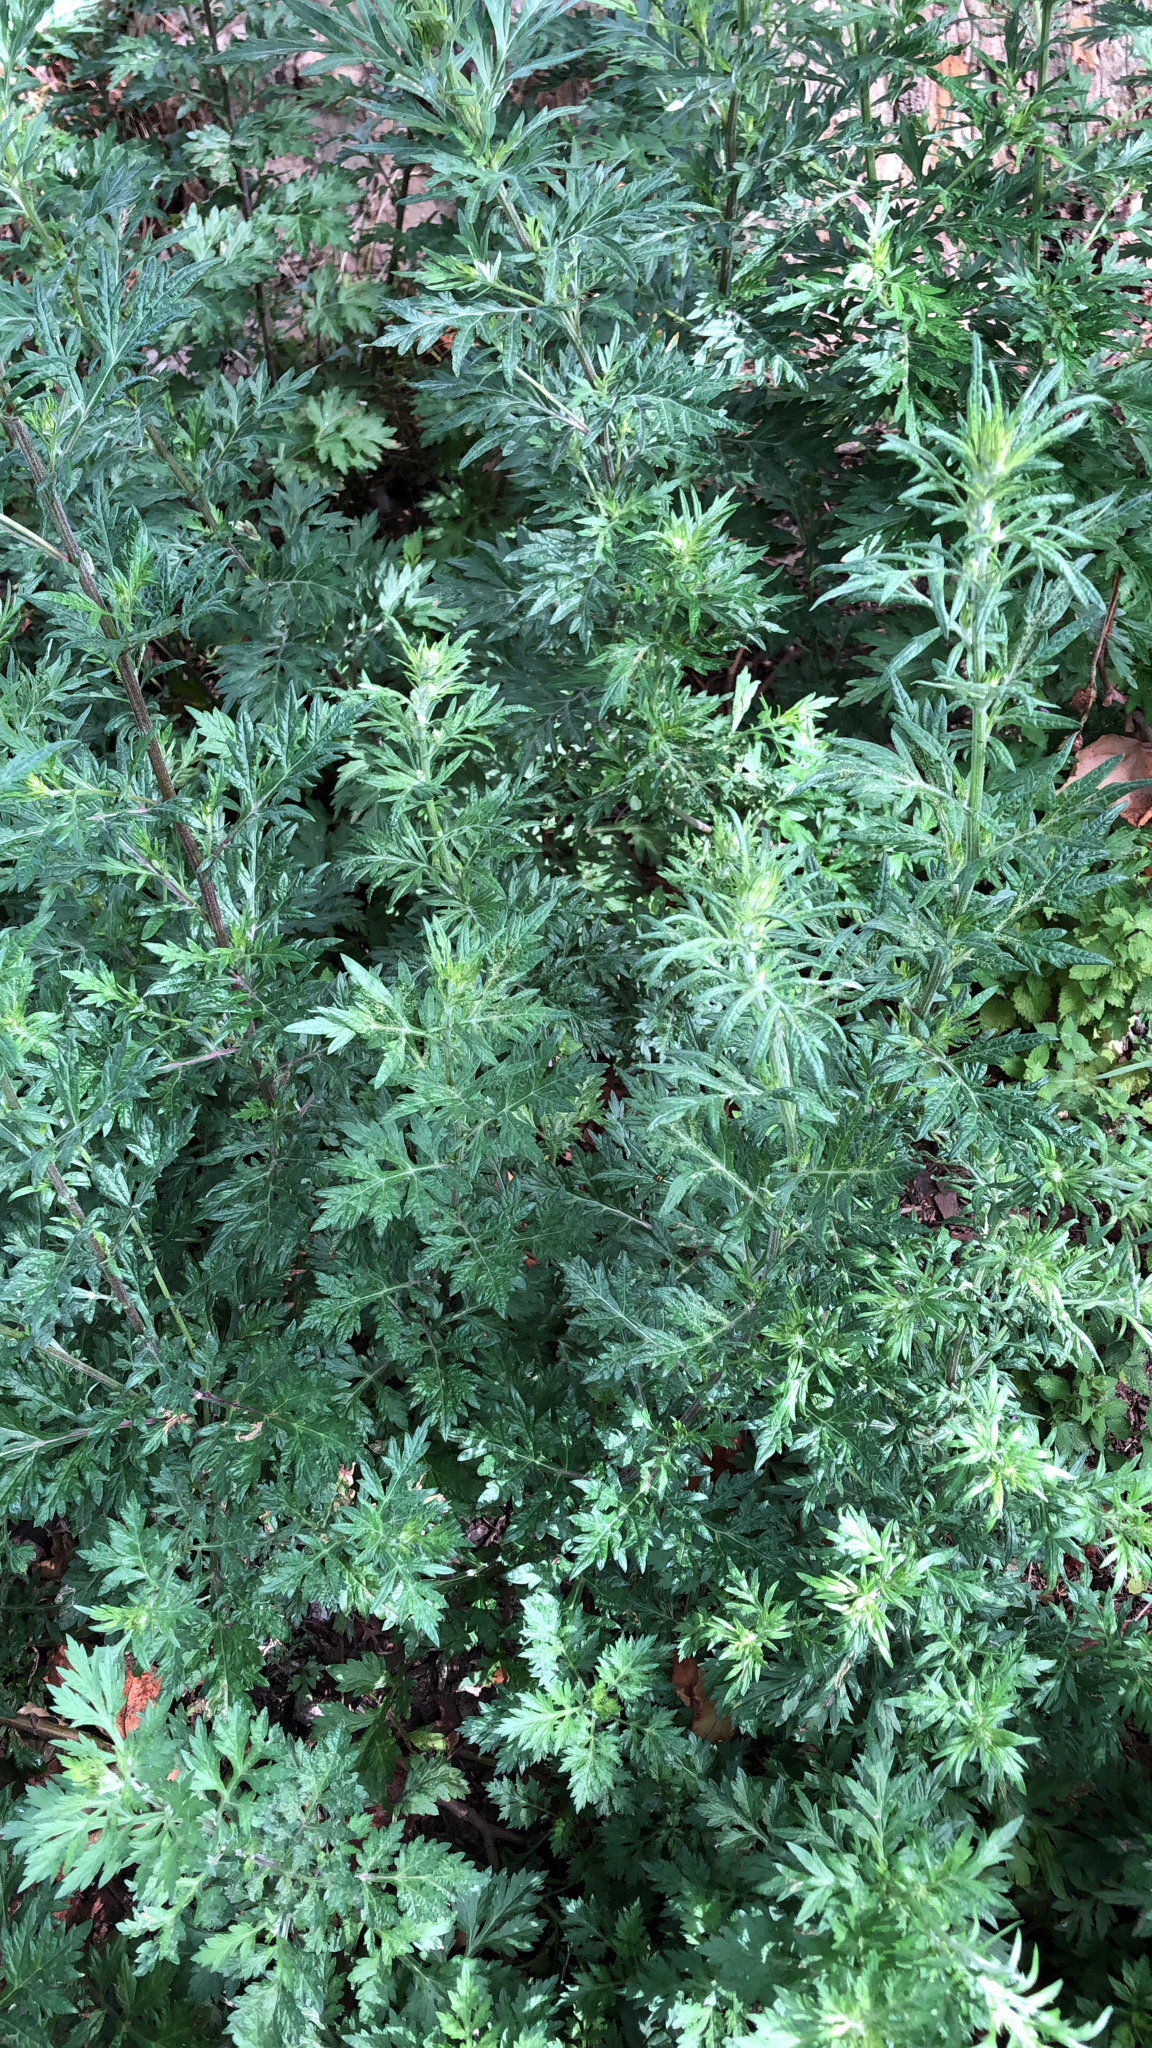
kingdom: Plantae
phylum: Tracheophyta
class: Magnoliopsida
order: Asterales
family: Asteraceae
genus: Artemisia
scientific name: Artemisia vulgaris
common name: Mugwort
